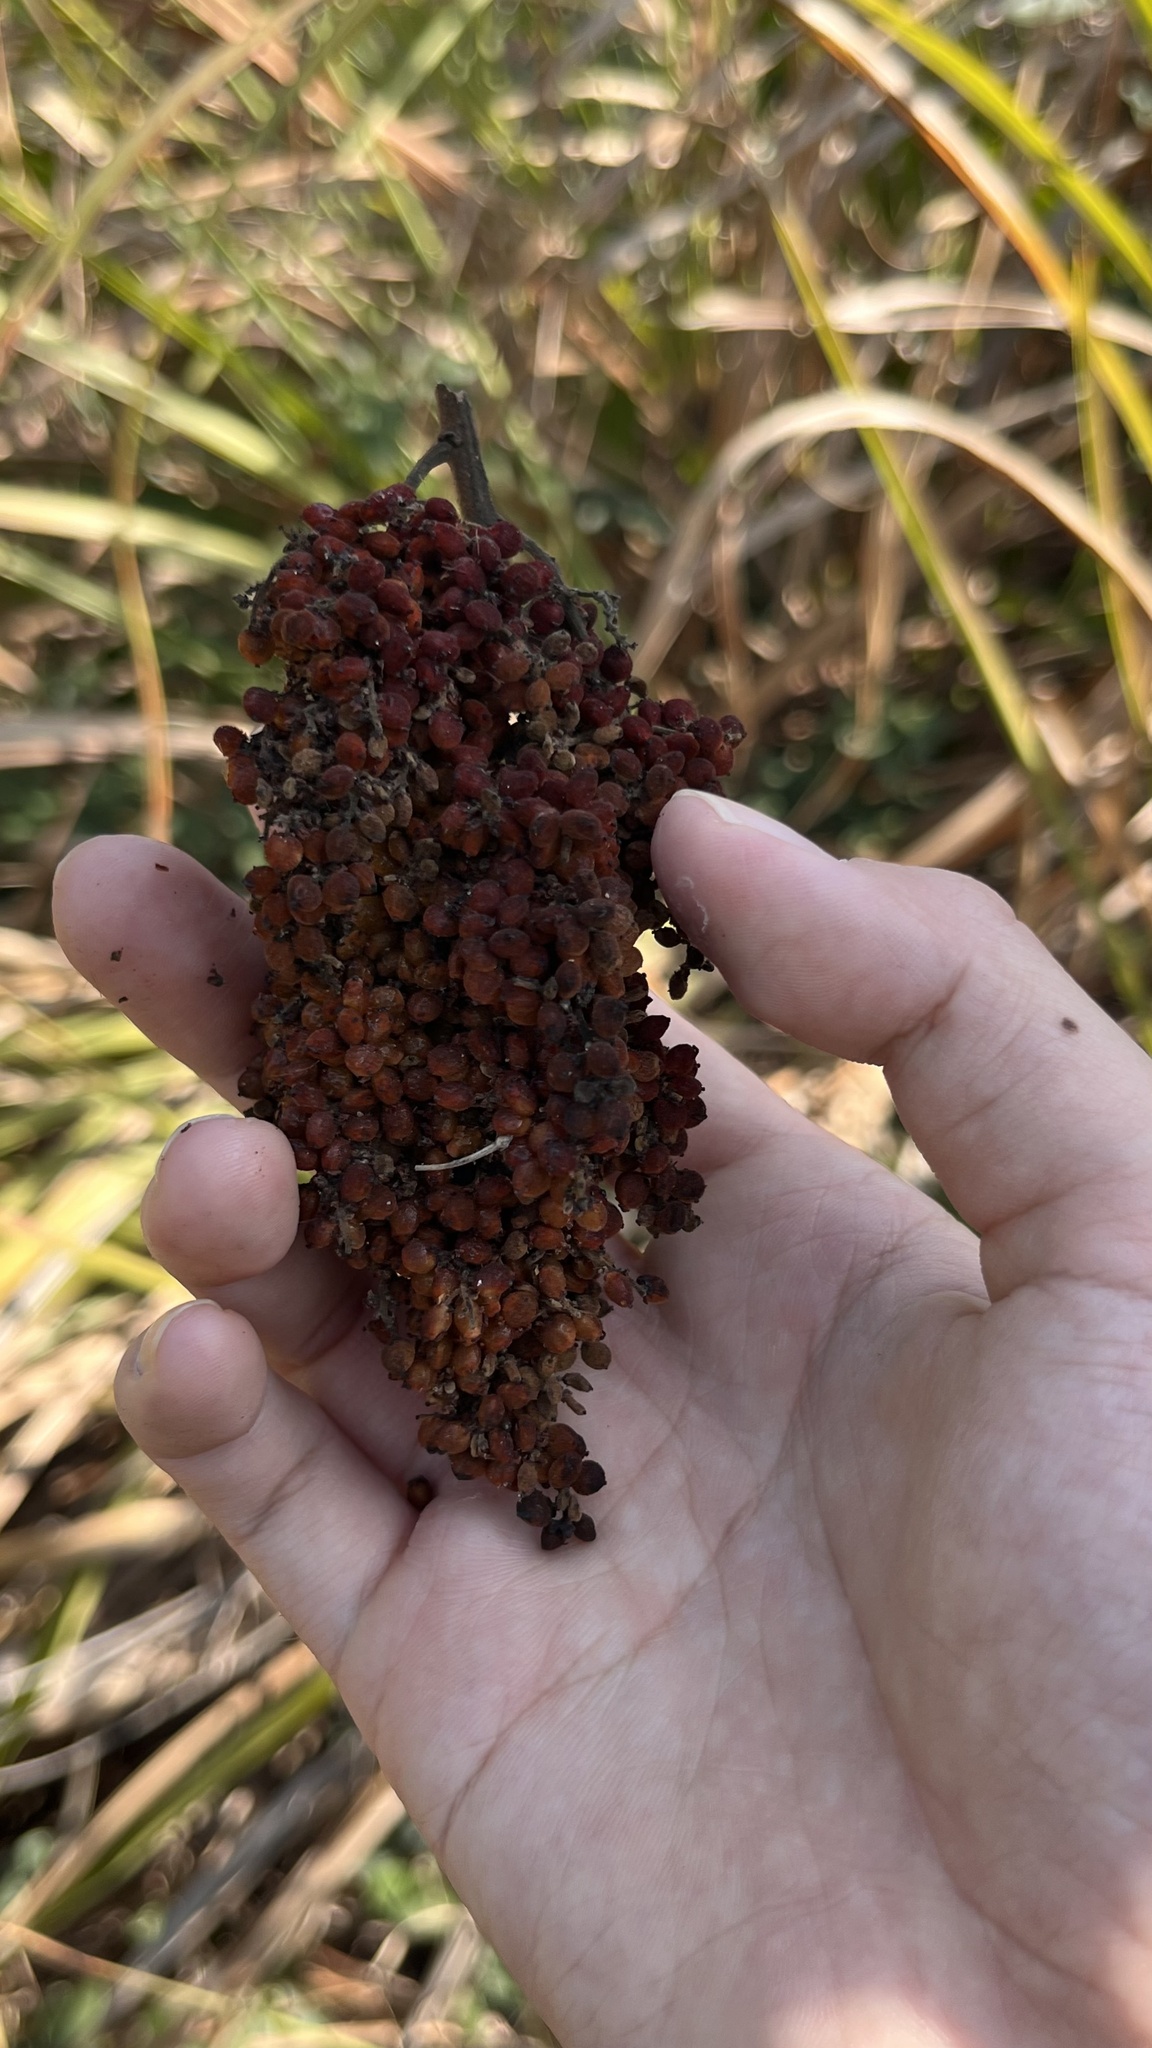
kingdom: Plantae
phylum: Tracheophyta
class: Magnoliopsida
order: Sapindales
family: Anacardiaceae
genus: Rhus
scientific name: Rhus chinensis
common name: Chinese gall
